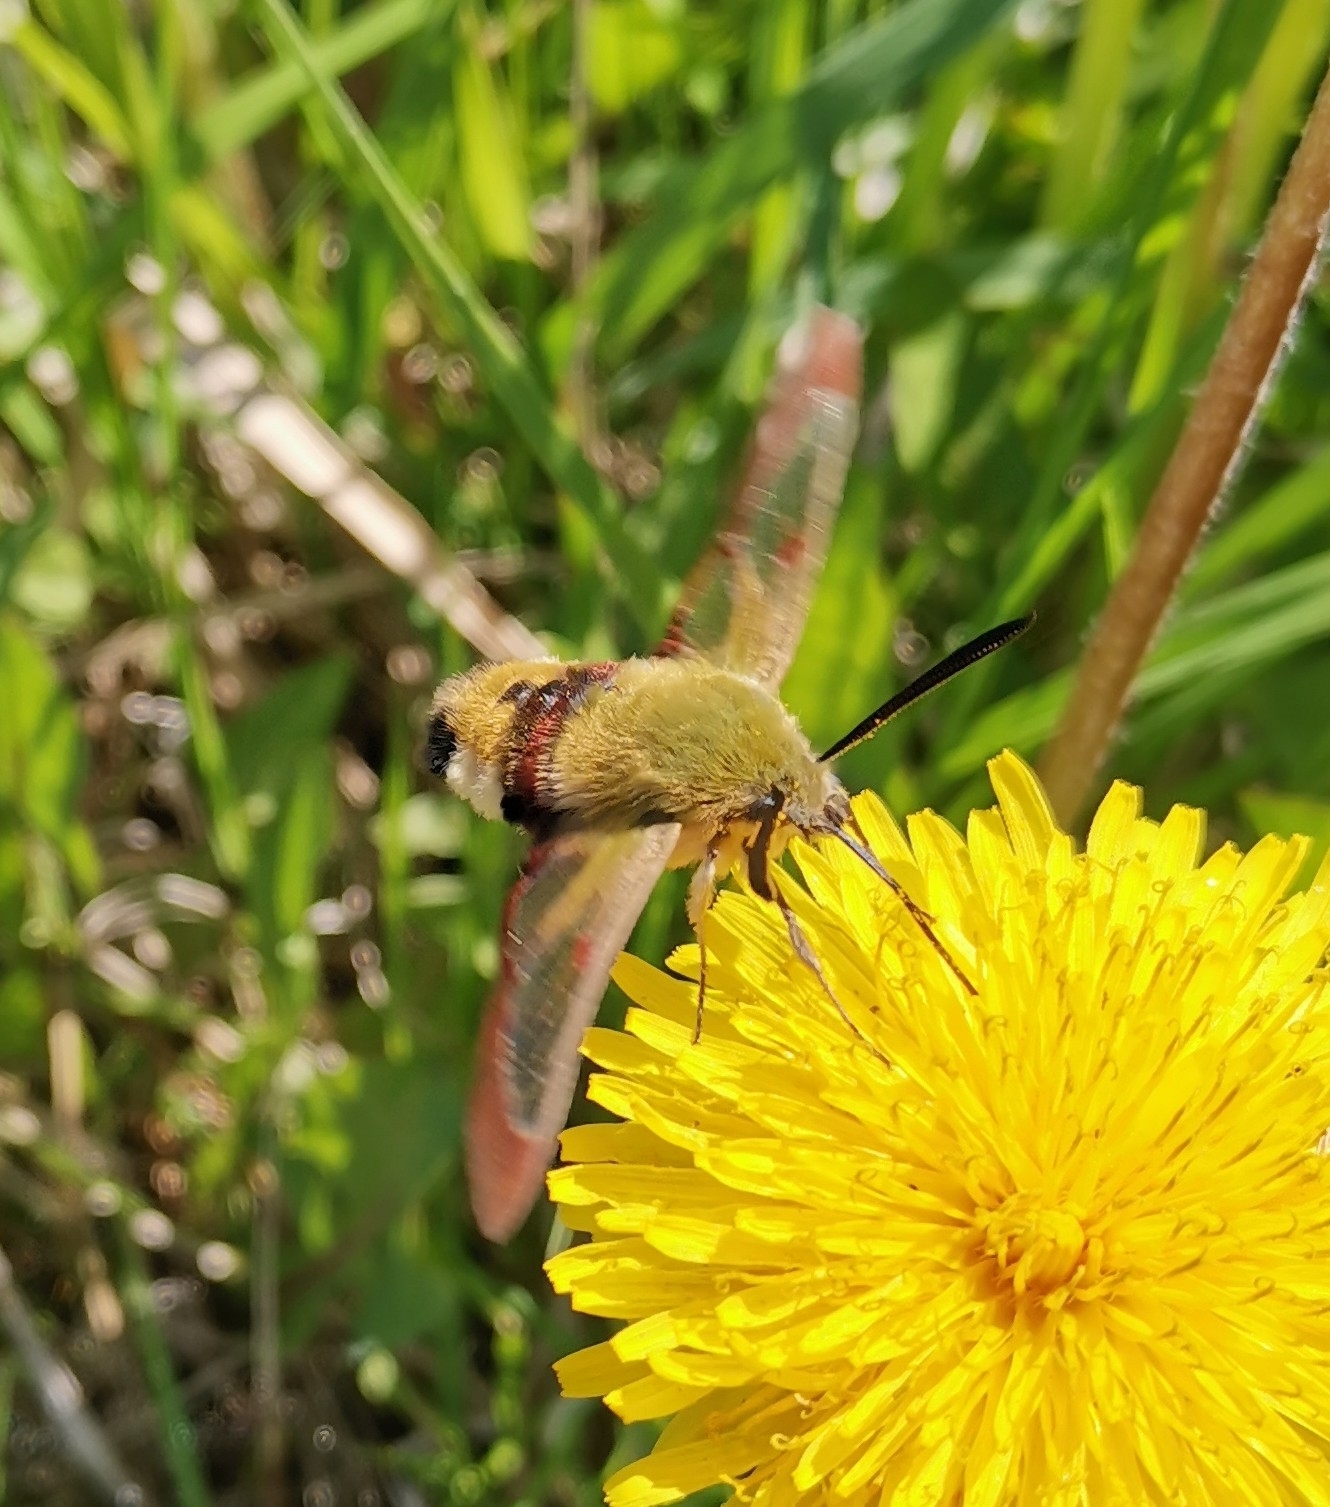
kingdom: Animalia
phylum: Arthropoda
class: Insecta
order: Lepidoptera
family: Sphingidae
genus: Hemaris
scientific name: Hemaris fuciformis
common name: Broad-bordered bee hawk-moth
